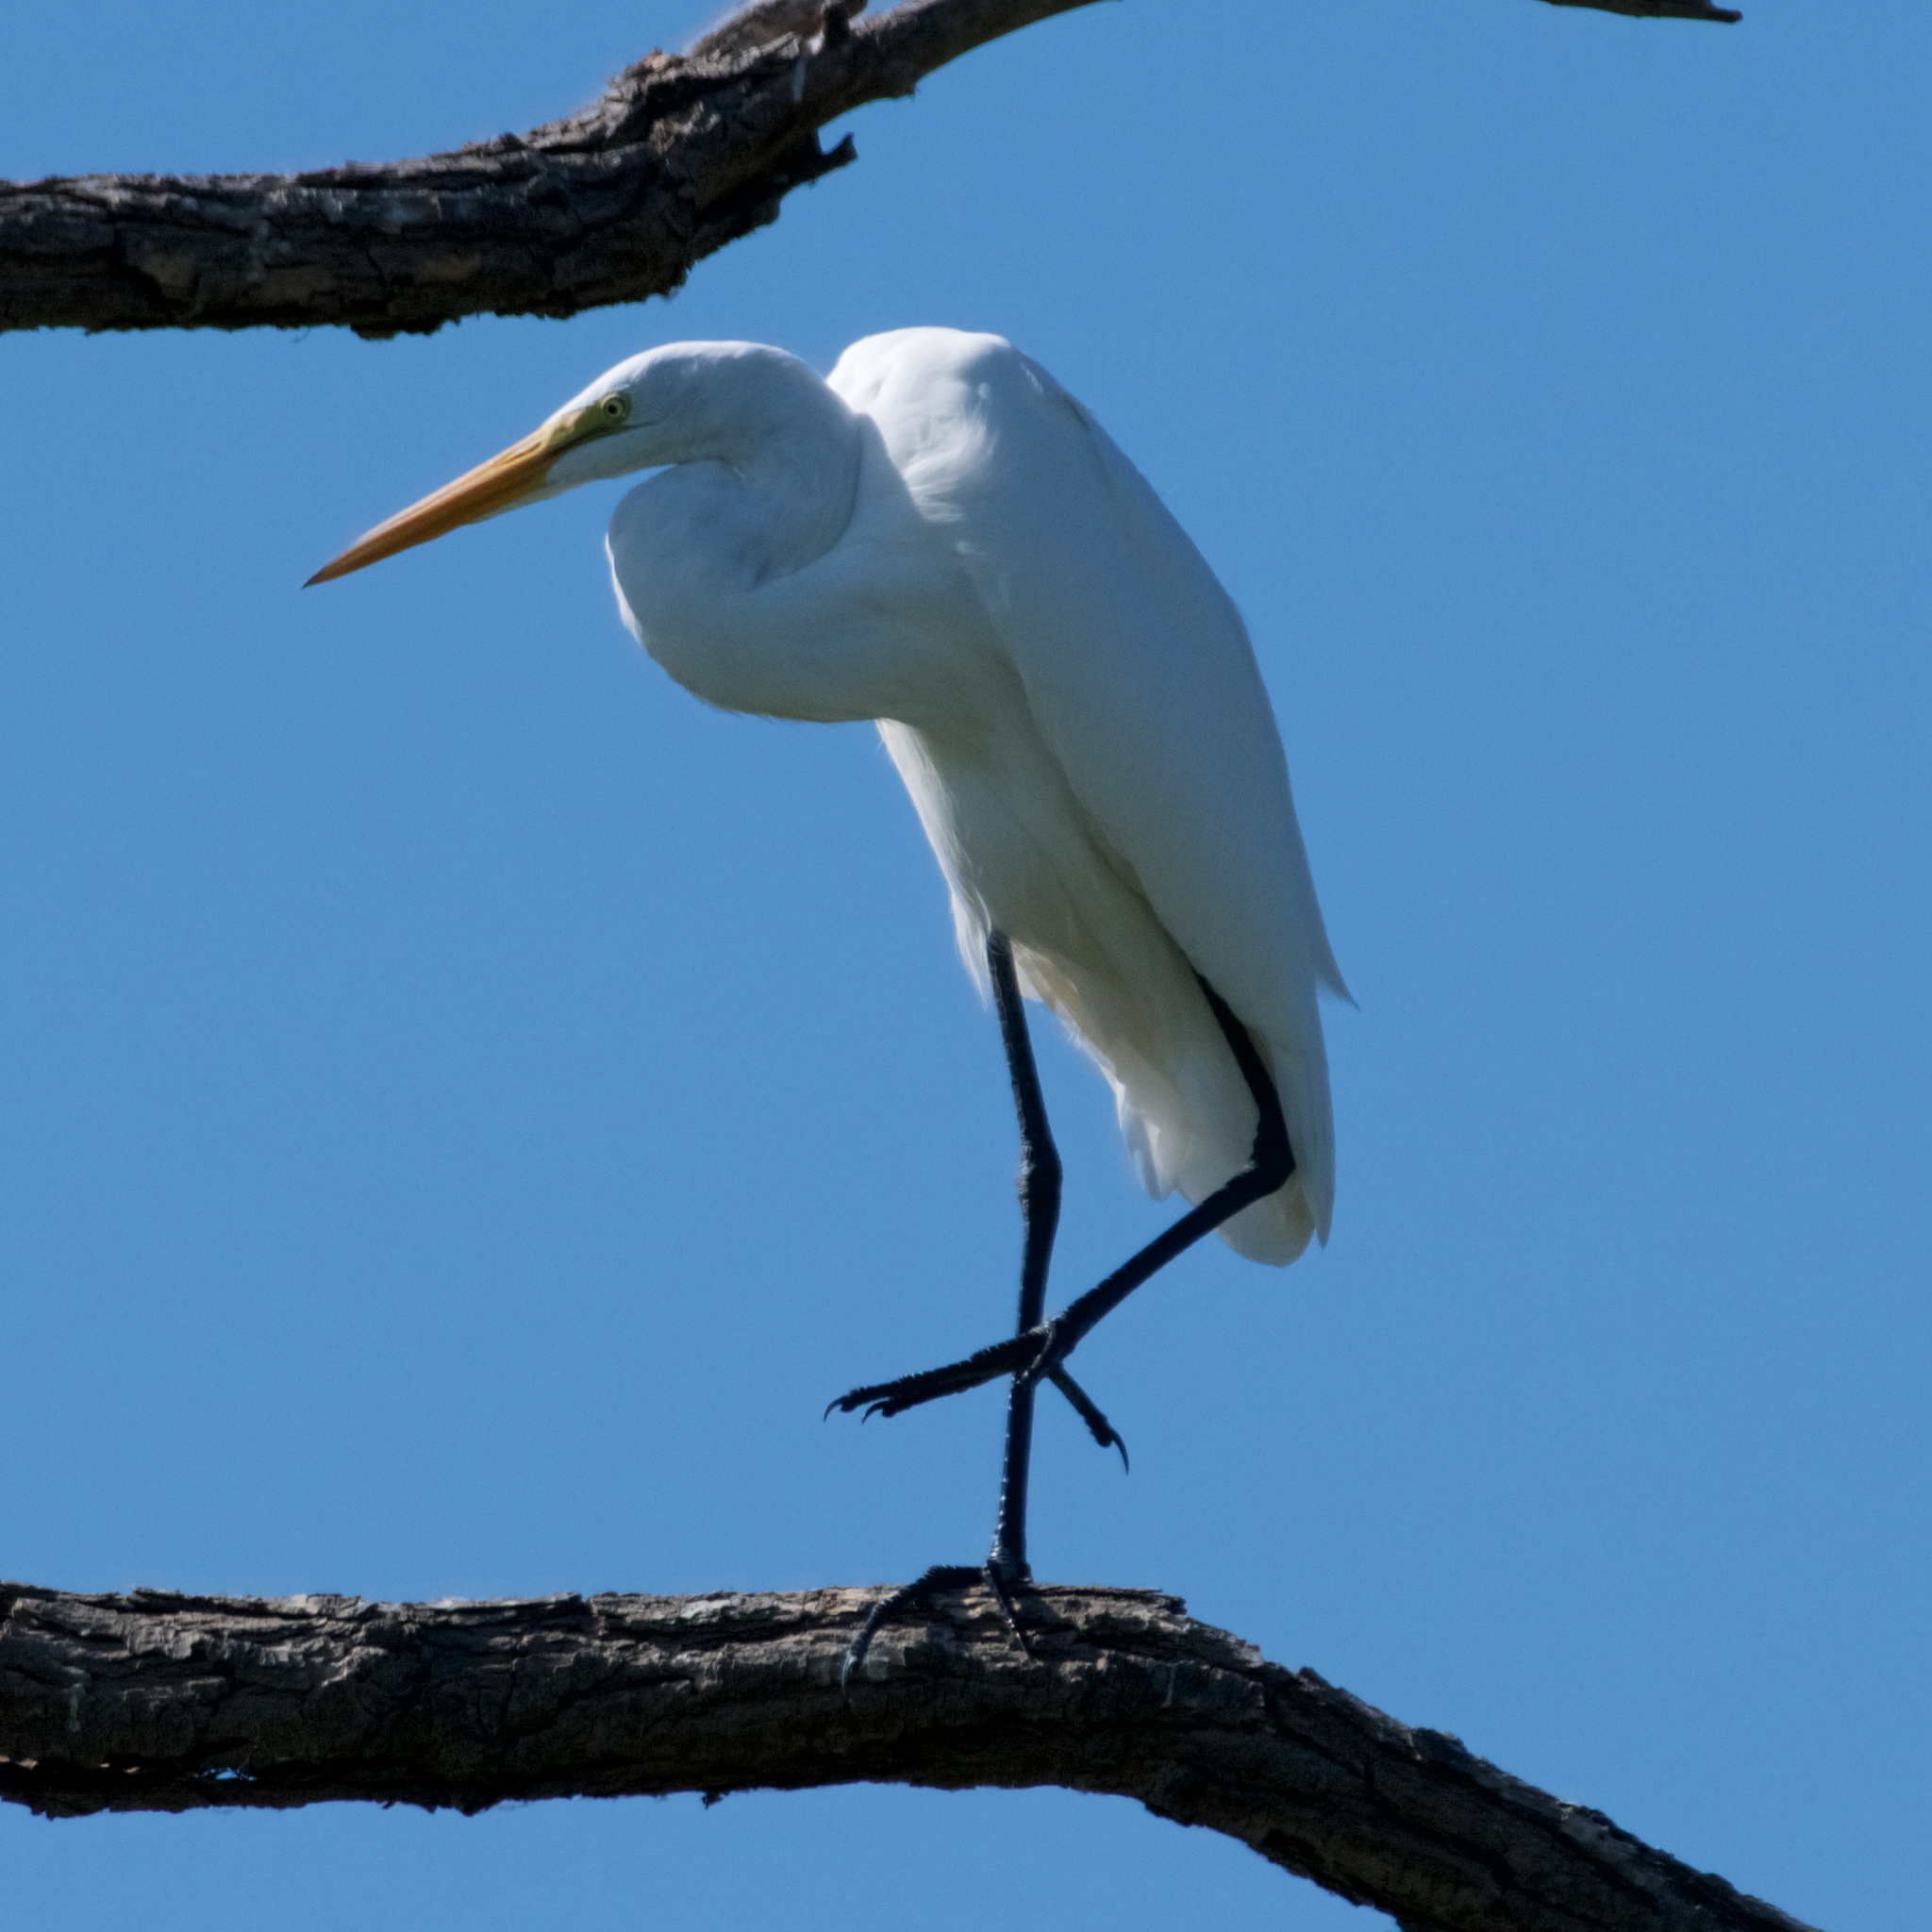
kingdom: Animalia
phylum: Chordata
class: Aves
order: Pelecaniformes
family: Ardeidae
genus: Ardea
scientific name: Ardea alba
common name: Great egret
